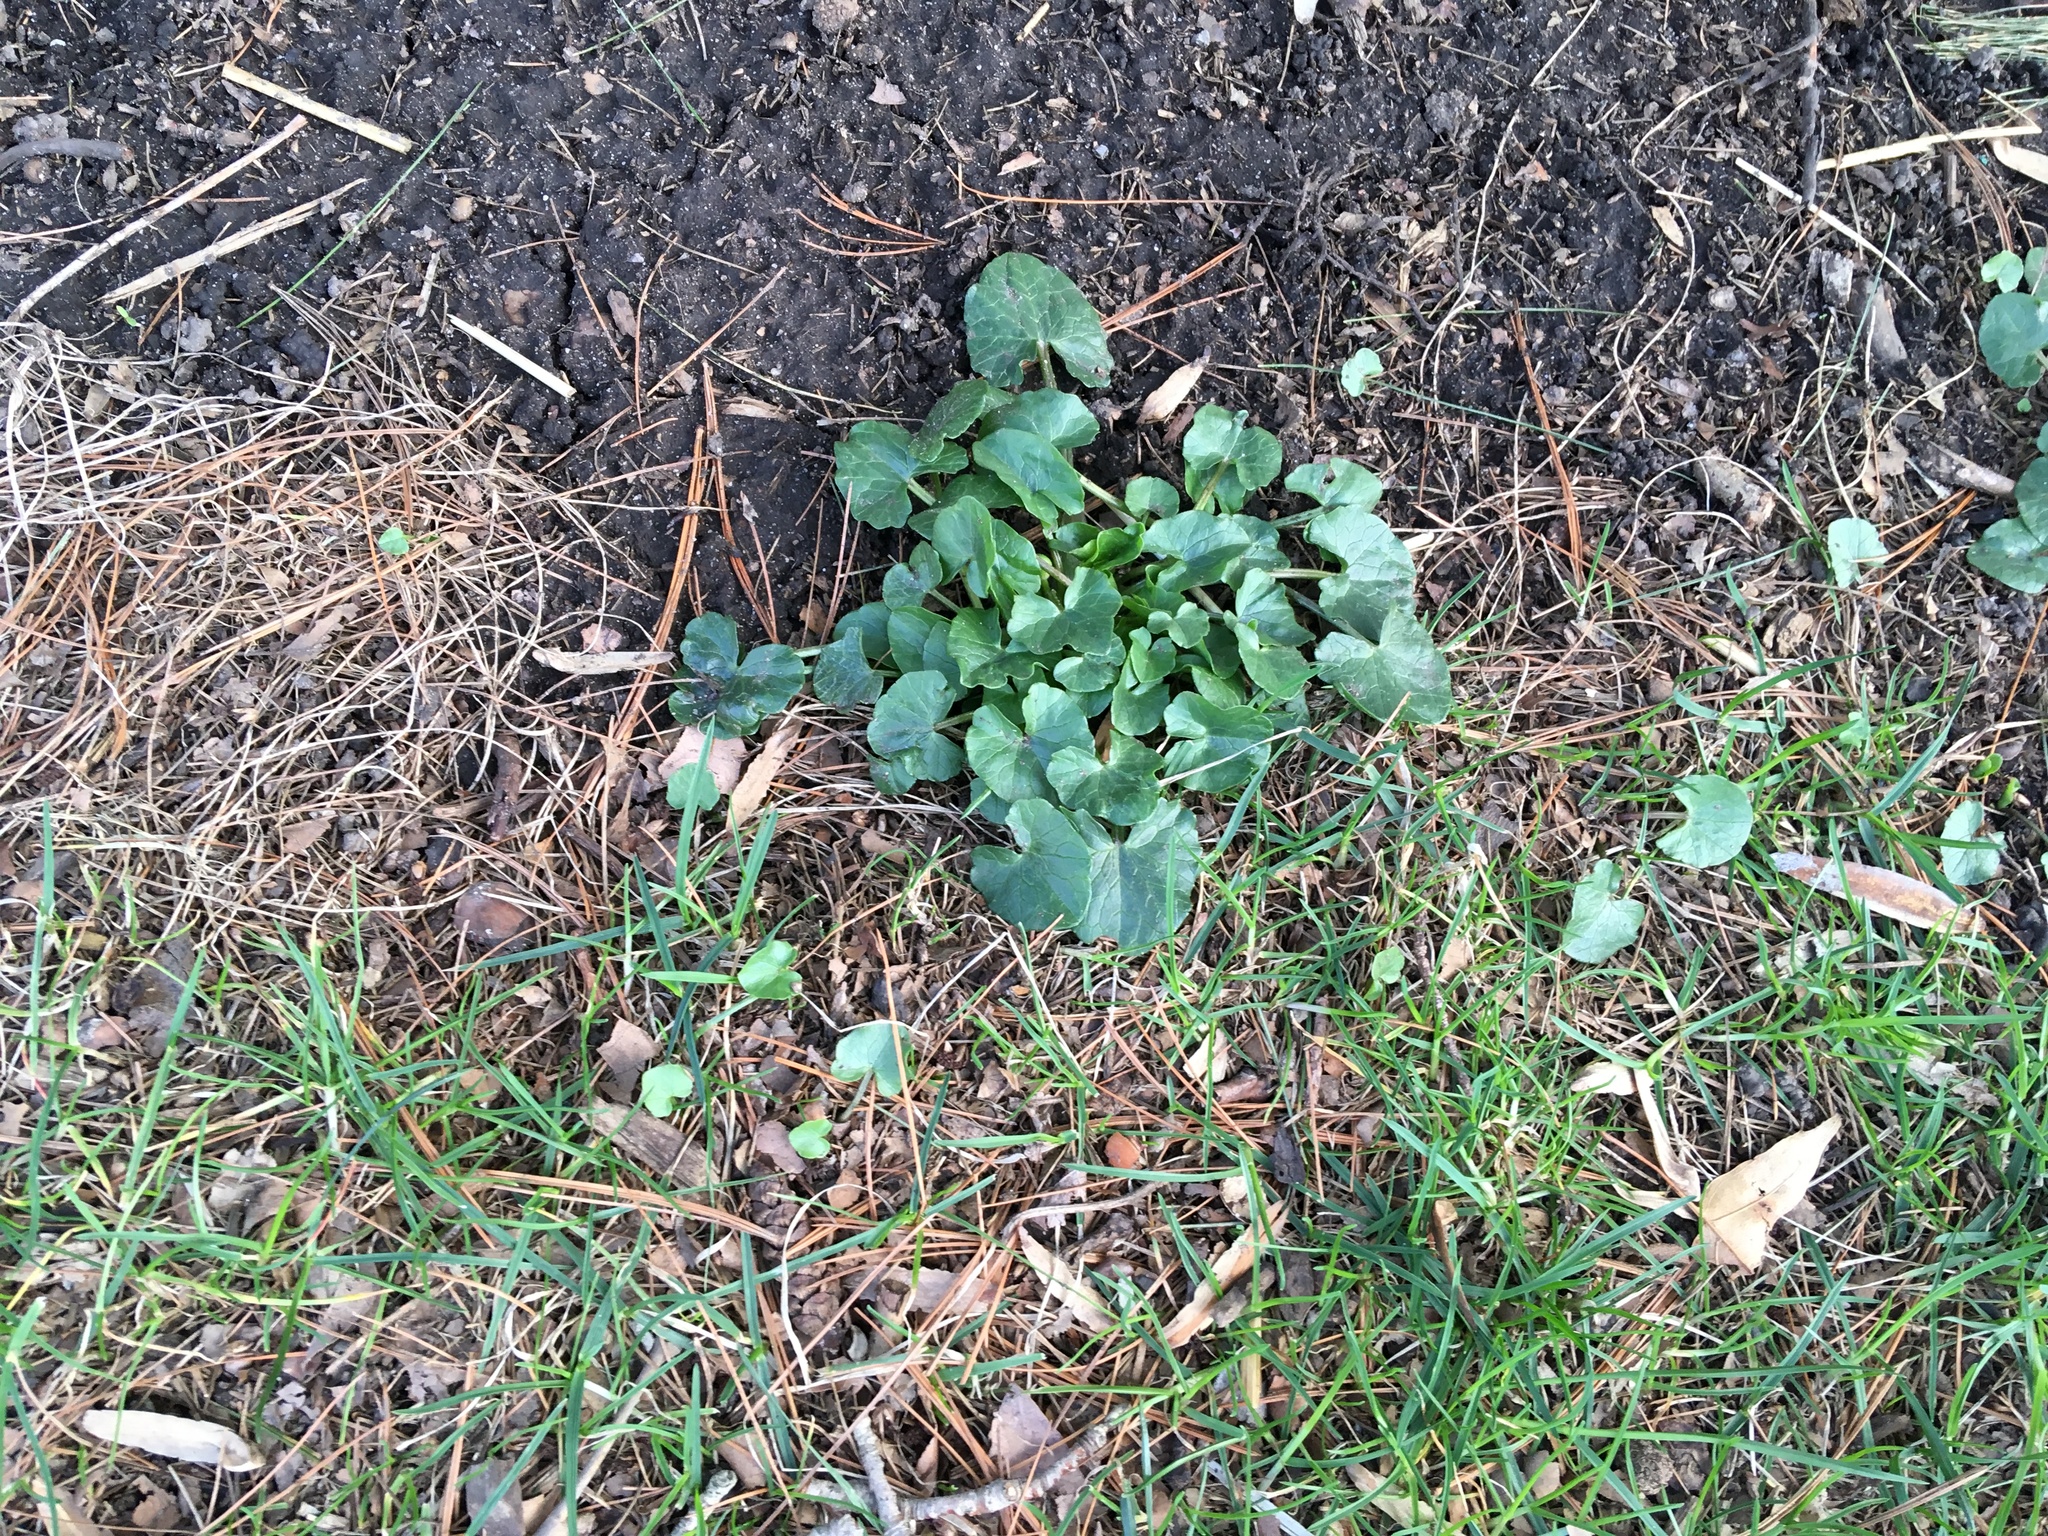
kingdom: Plantae
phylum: Tracheophyta
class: Magnoliopsida
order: Ranunculales
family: Ranunculaceae
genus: Ficaria
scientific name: Ficaria verna
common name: Lesser celandine
